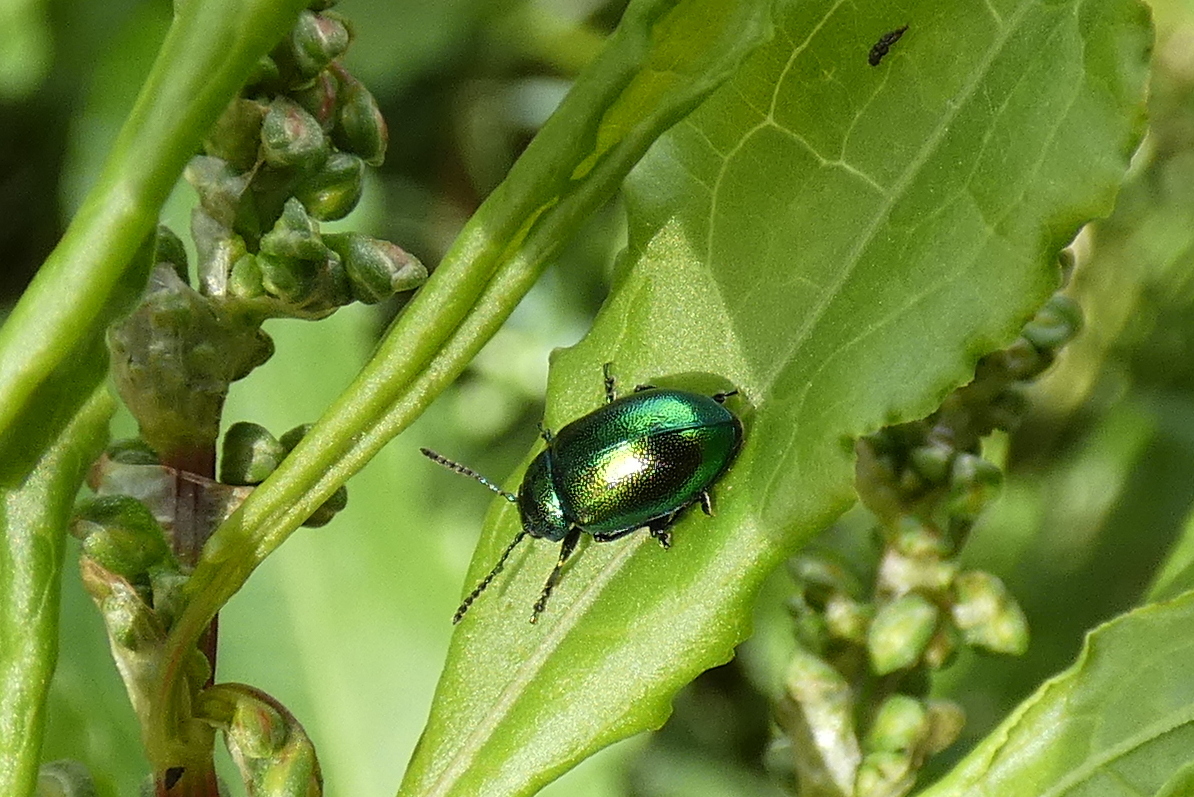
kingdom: Animalia
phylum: Arthropoda
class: Insecta
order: Coleoptera
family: Chrysomelidae
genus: Gastrophysa
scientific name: Gastrophysa viridula
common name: Green dock beetle
